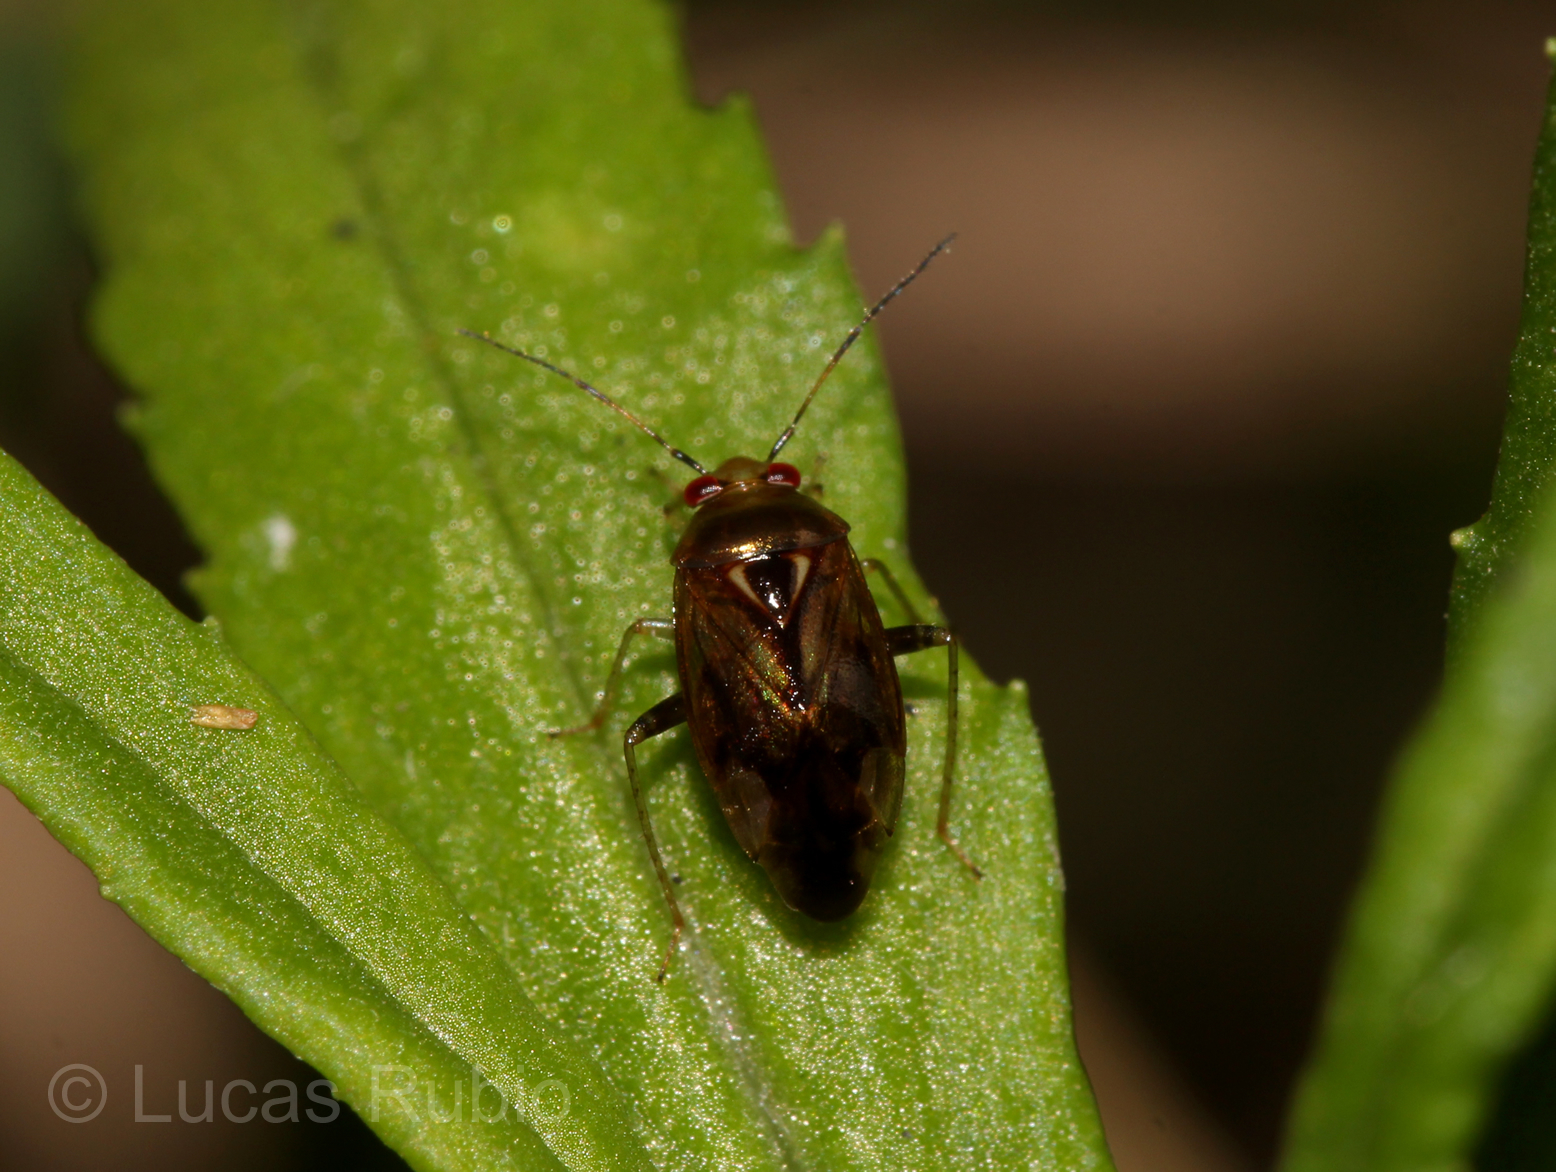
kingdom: Animalia
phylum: Arthropoda
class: Insecta
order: Hemiptera
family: Miridae
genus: Proba
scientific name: Proba fraudulenta
